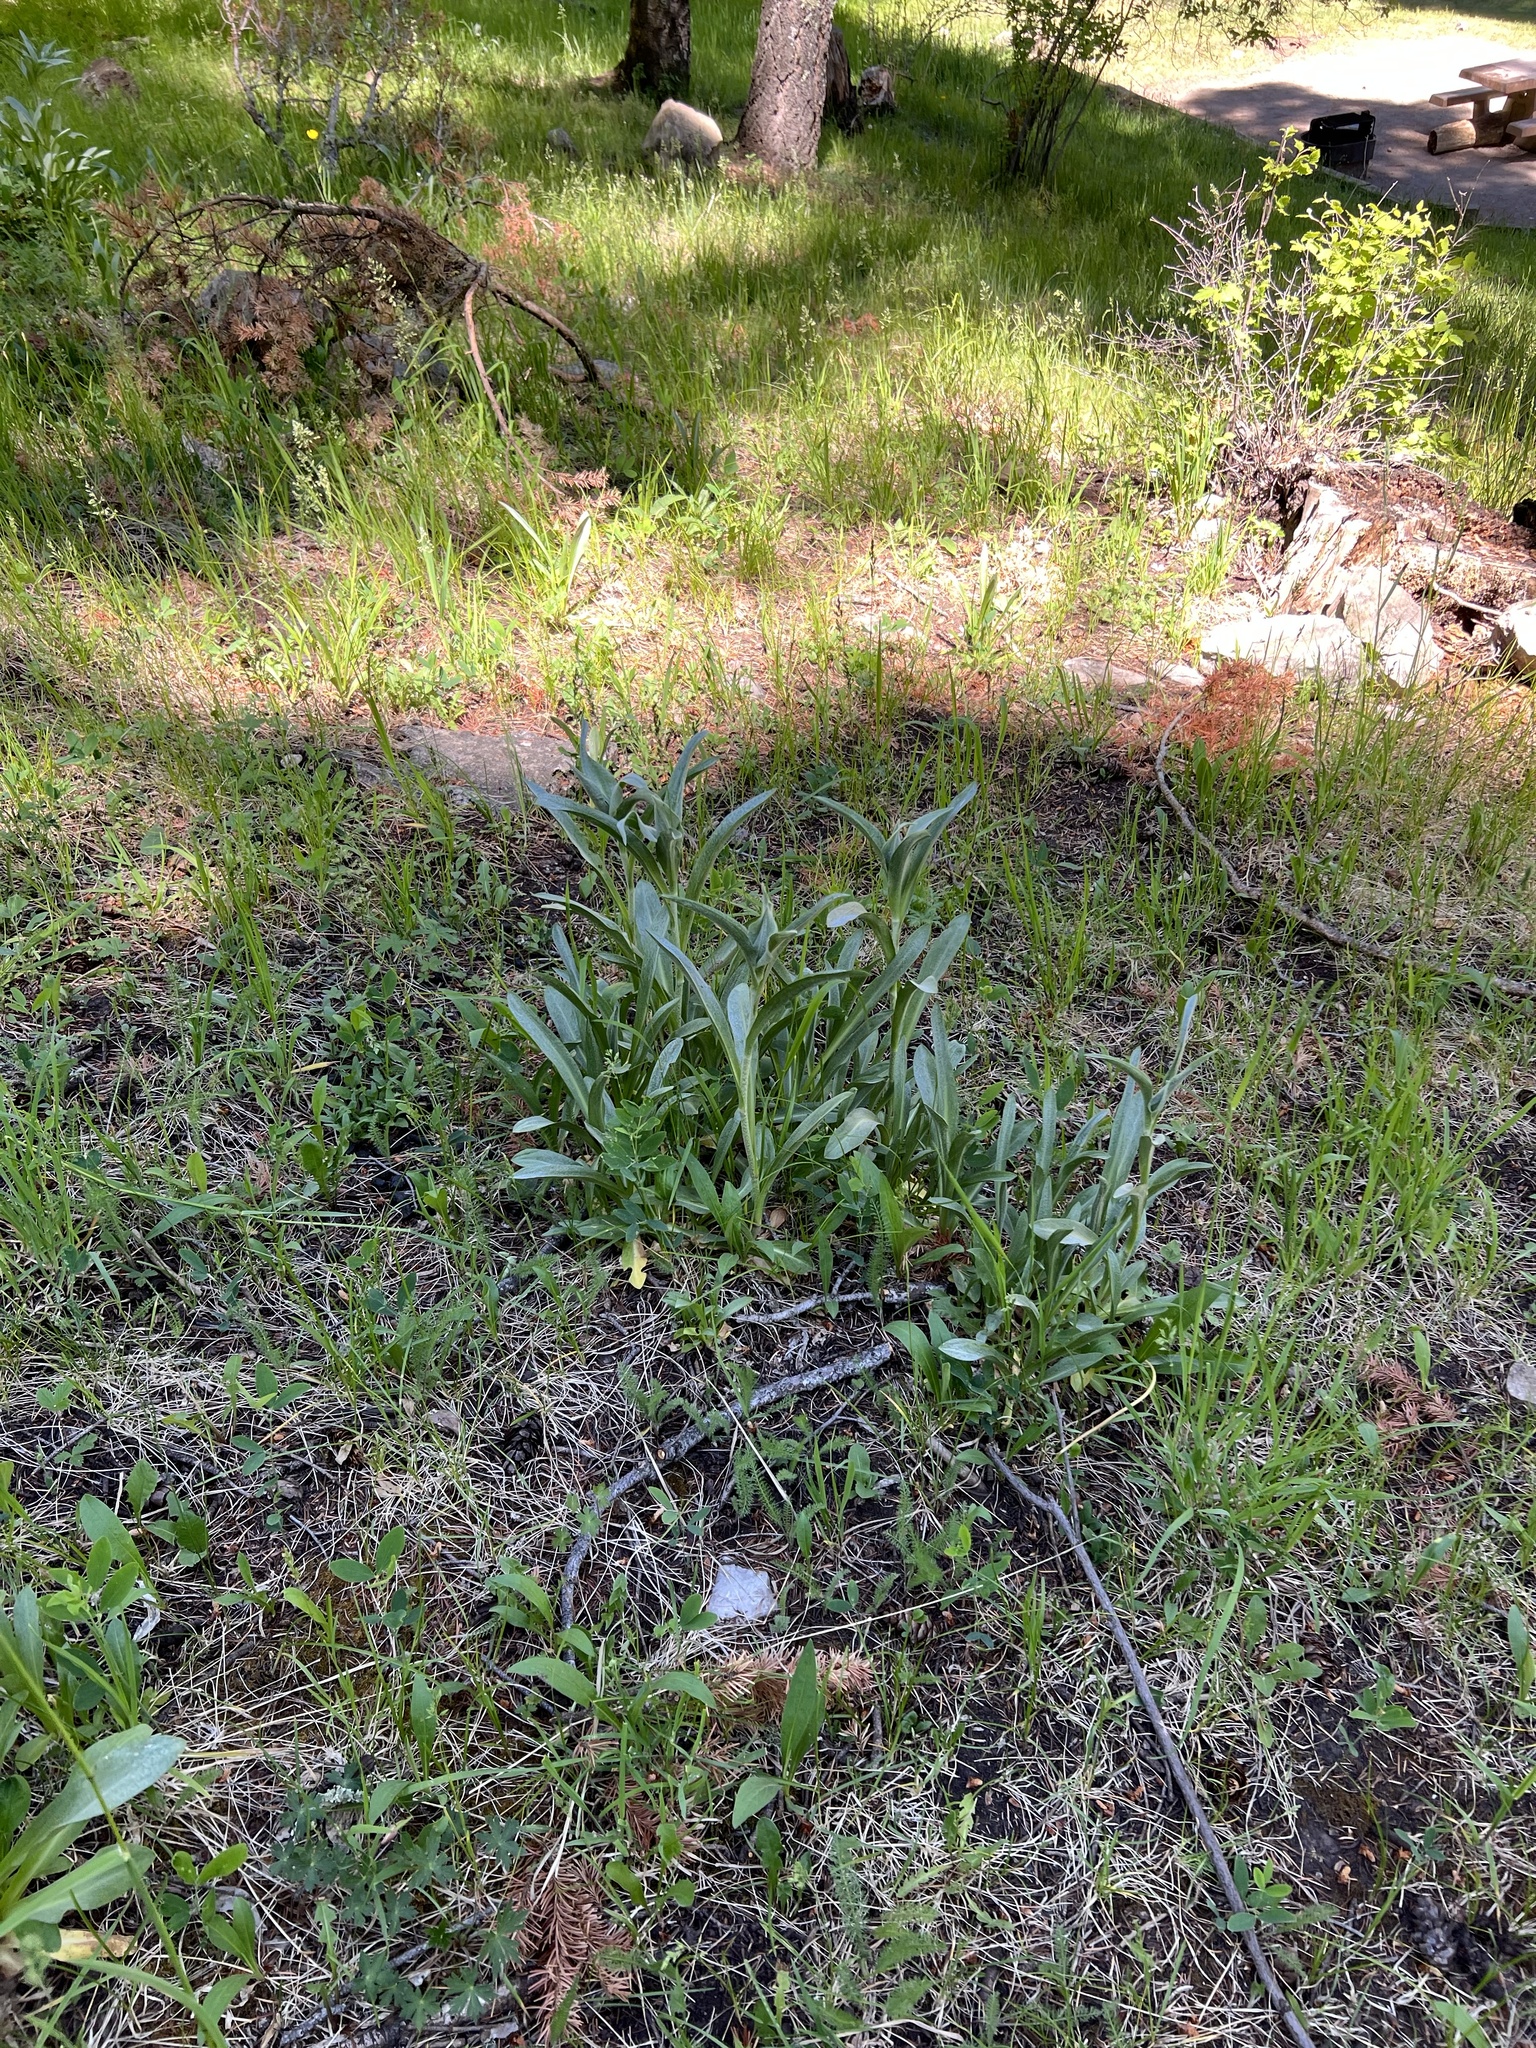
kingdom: Plantae
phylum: Tracheophyta
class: Magnoliopsida
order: Asterales
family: Asteraceae
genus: Hymenoxys
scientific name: Hymenoxys hoopesii
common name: Orange-sneezeweed
